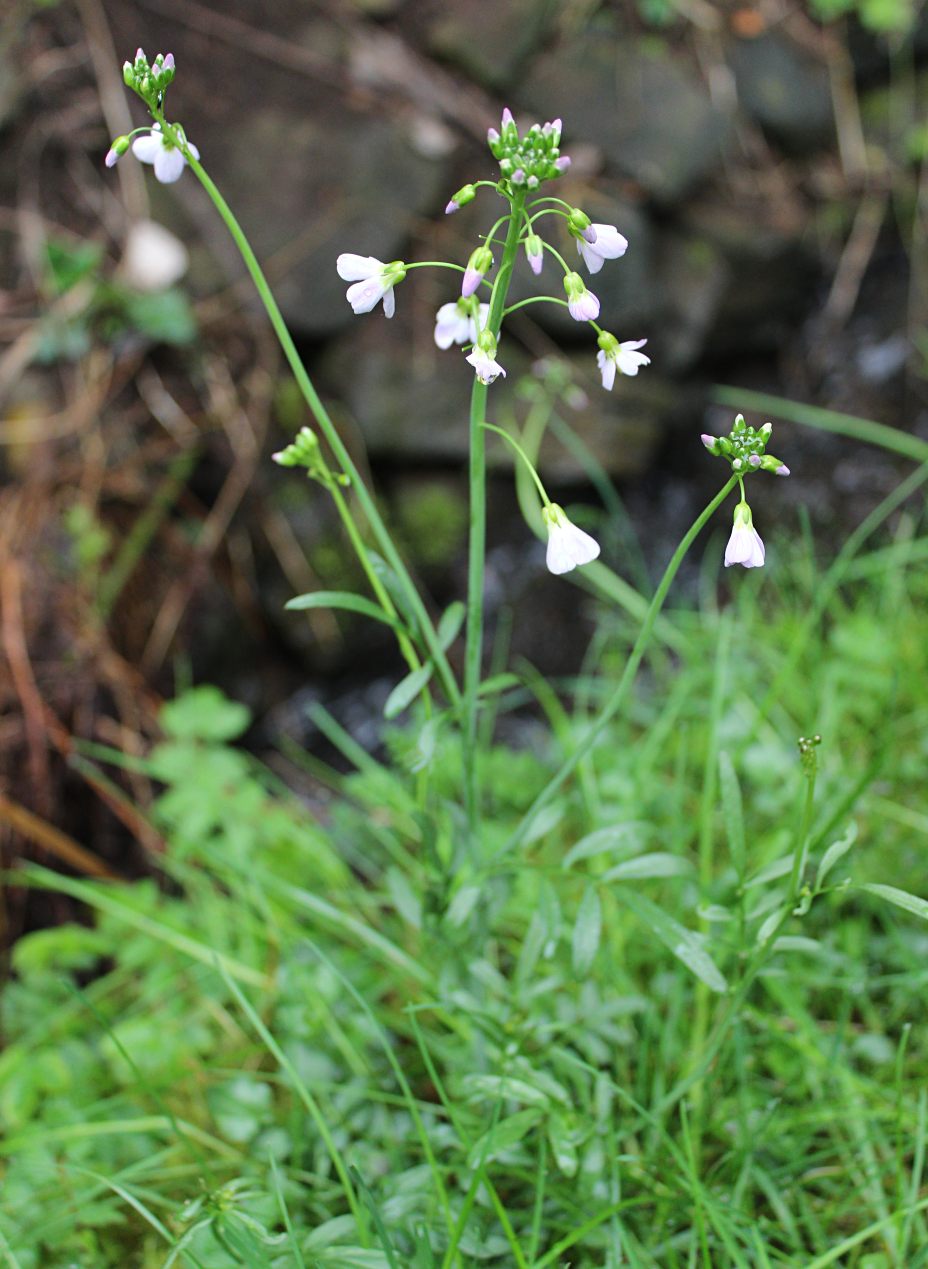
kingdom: Plantae
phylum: Tracheophyta
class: Magnoliopsida
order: Brassicales
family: Brassicaceae
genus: Cardamine
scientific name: Cardamine pratensis
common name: Cuckoo flower
